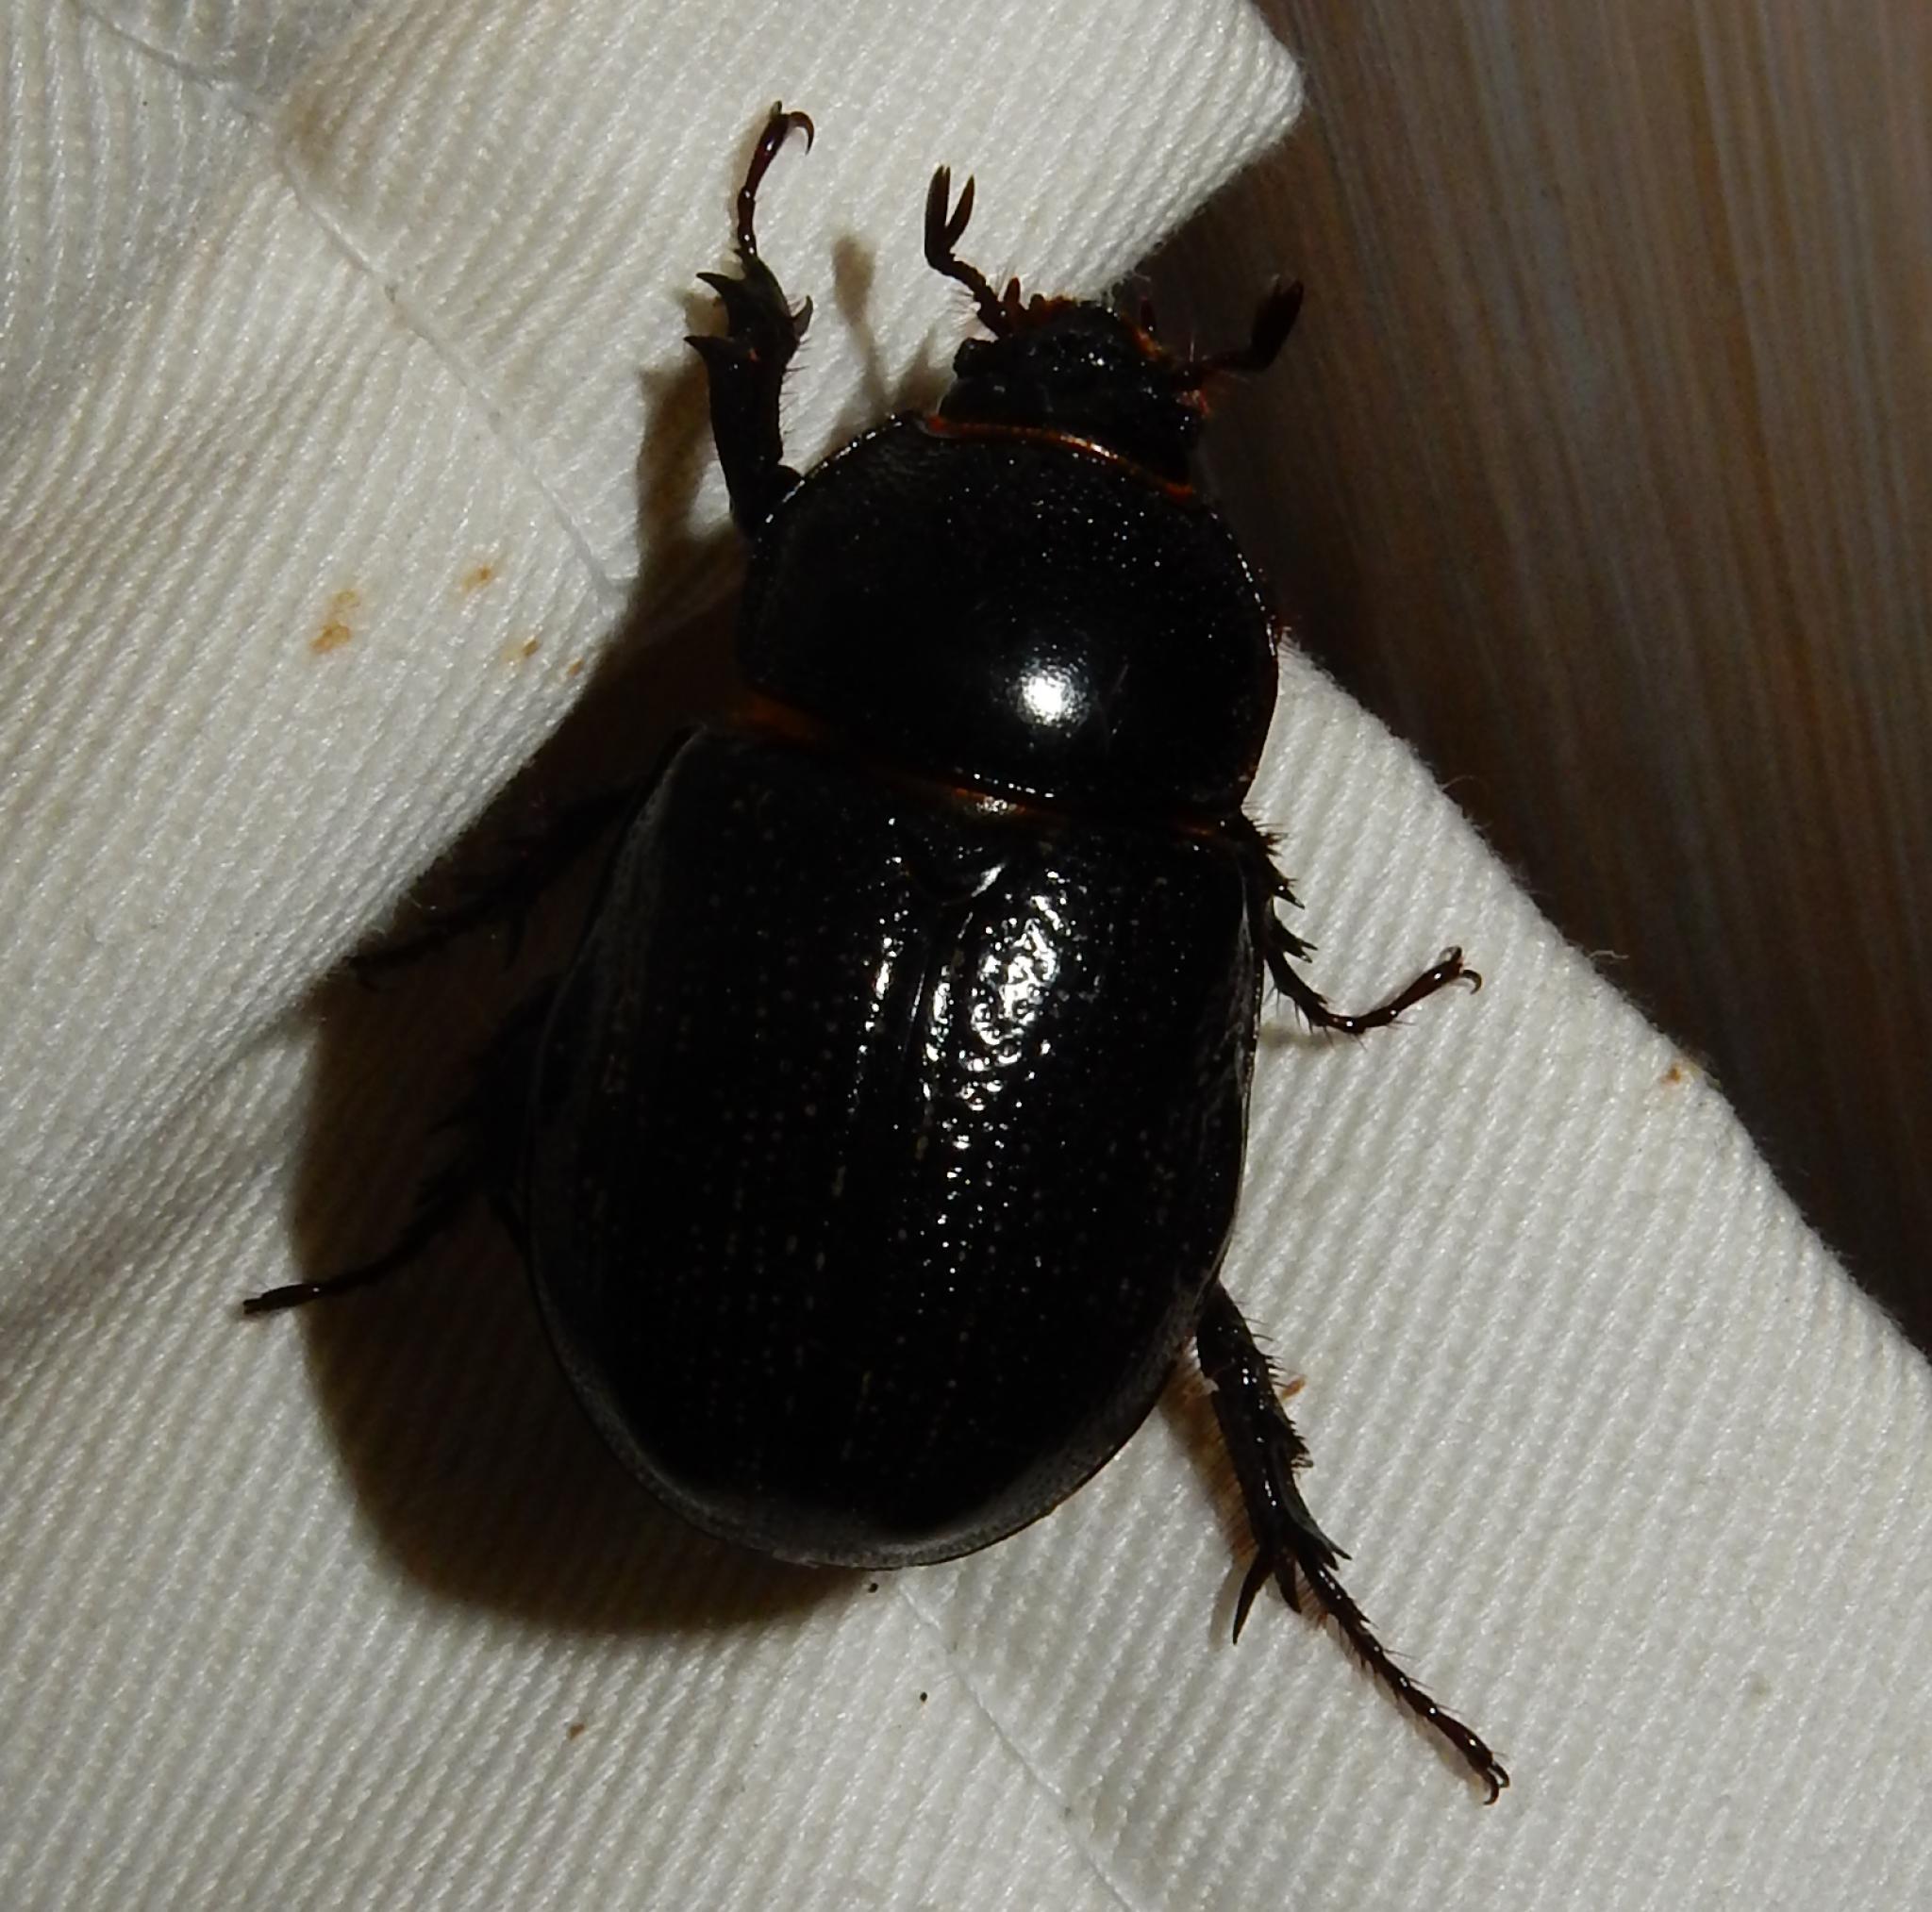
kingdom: Animalia
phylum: Arthropoda
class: Insecta
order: Coleoptera
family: Scarabaeidae
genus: Cyphonistes
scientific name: Cyphonistes vallatus
